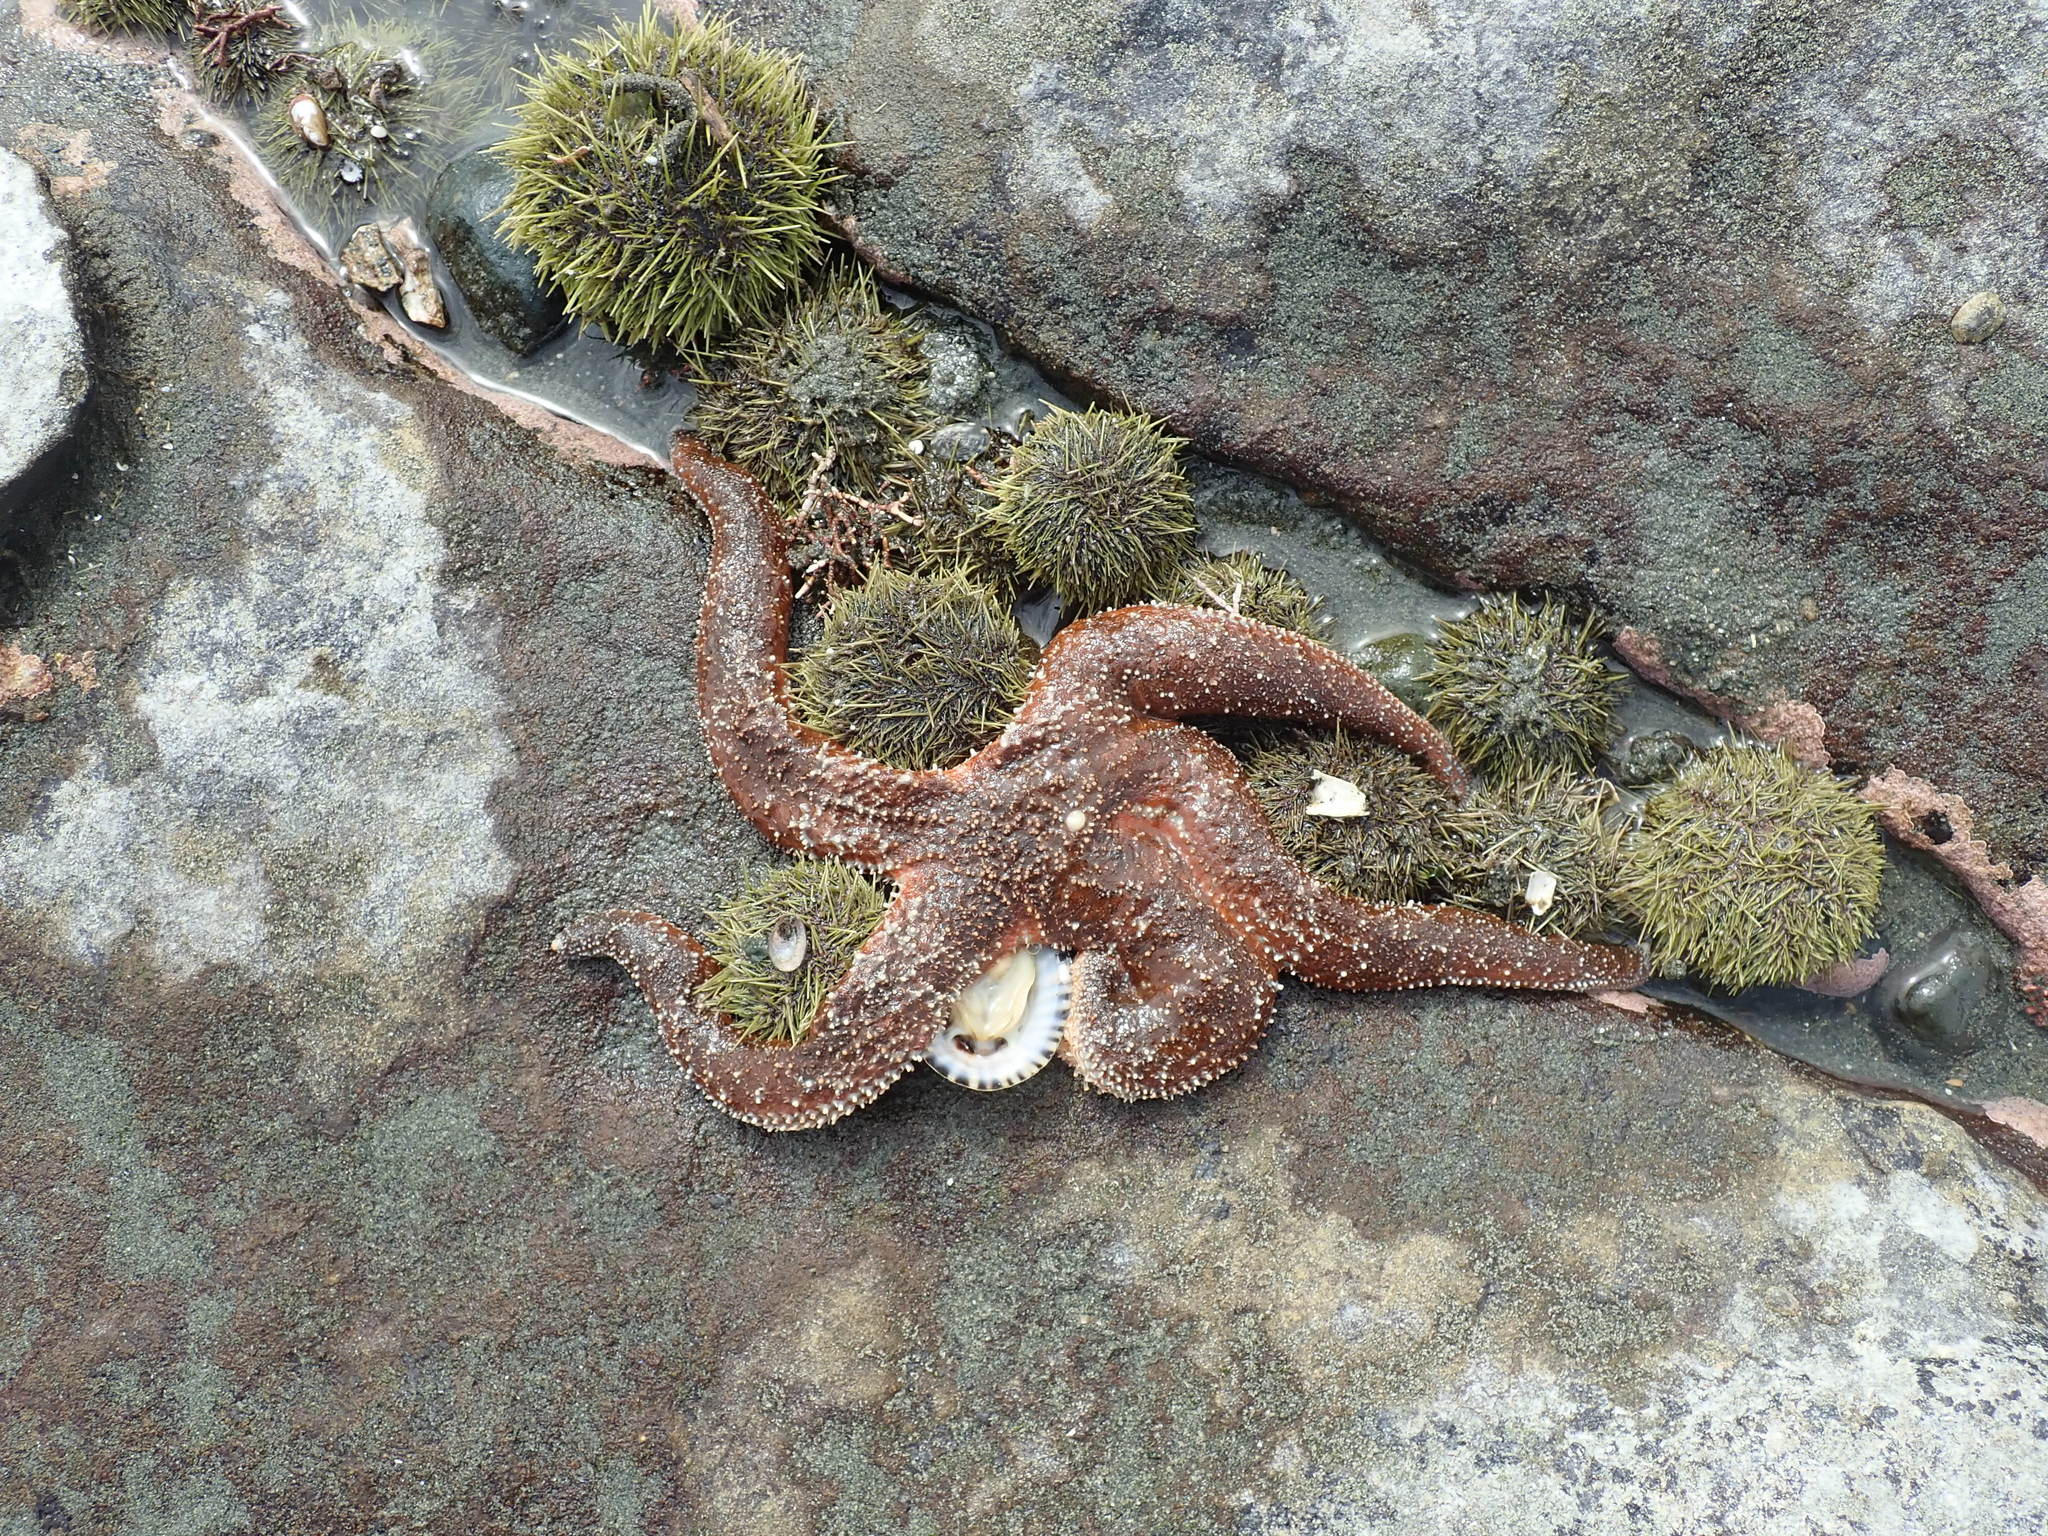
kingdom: Animalia
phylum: Echinodermata
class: Asteroidea
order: Forcipulatida
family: Asteriidae
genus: Evasterias
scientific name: Evasterias troschelii
